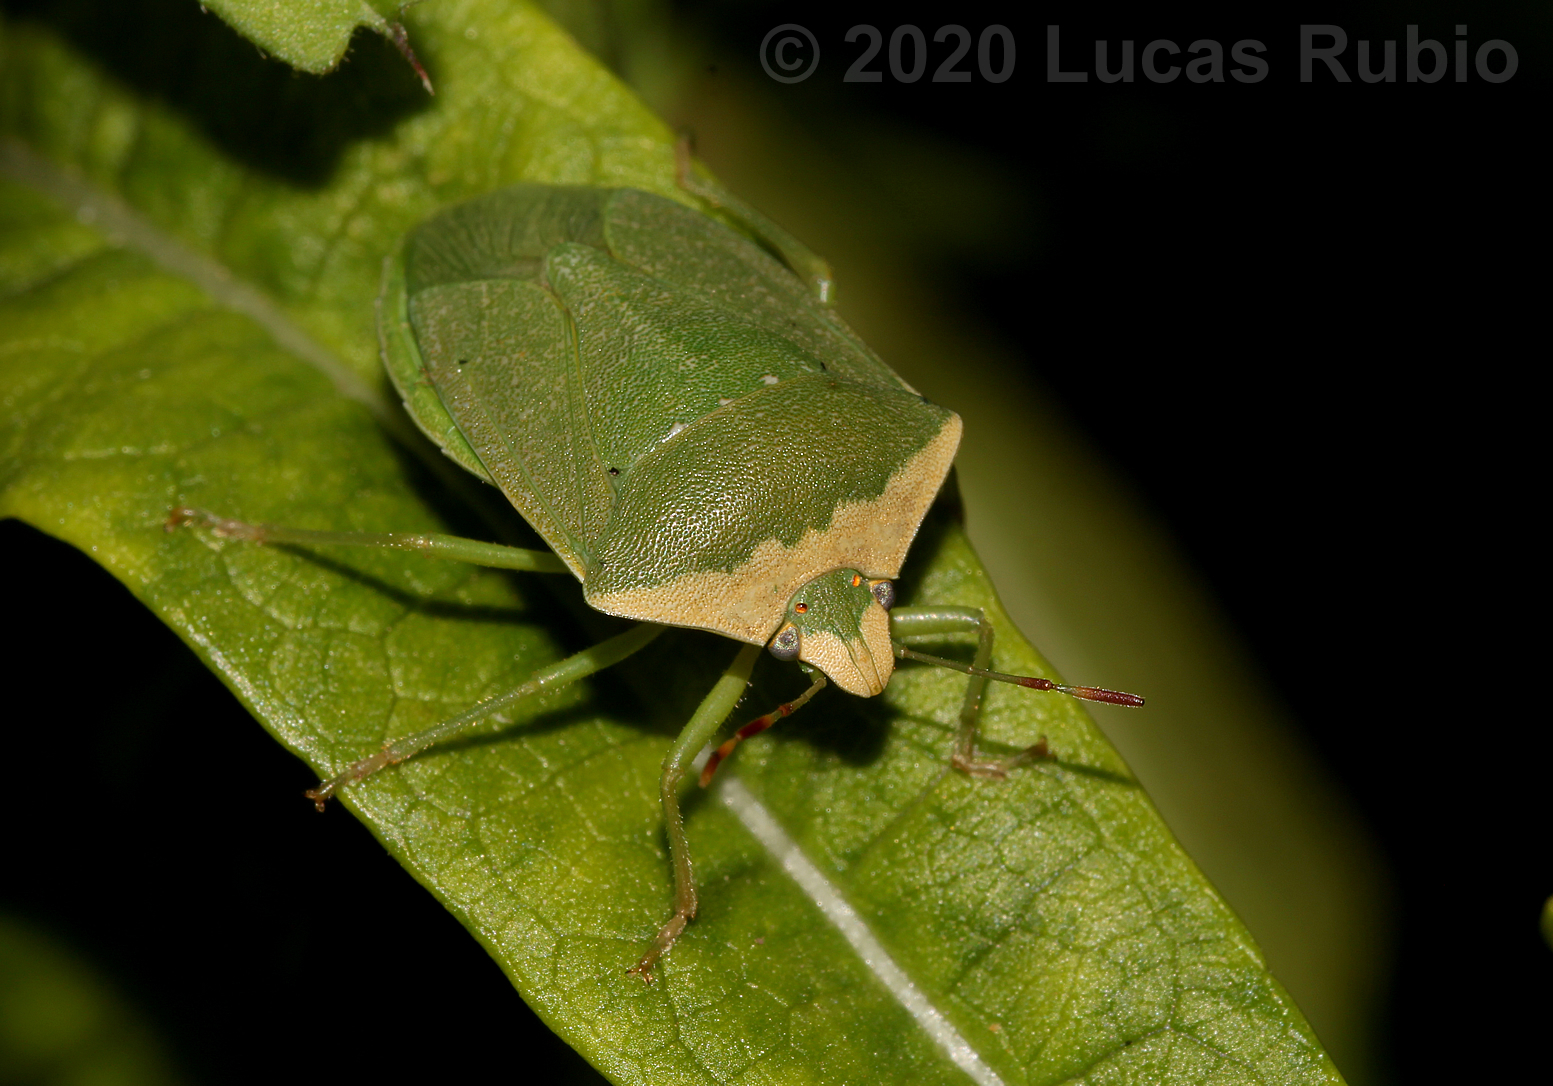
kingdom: Animalia
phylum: Arthropoda
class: Insecta
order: Hemiptera
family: Pentatomidae
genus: Nezara
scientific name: Nezara viridula
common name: Southern green stink bug
